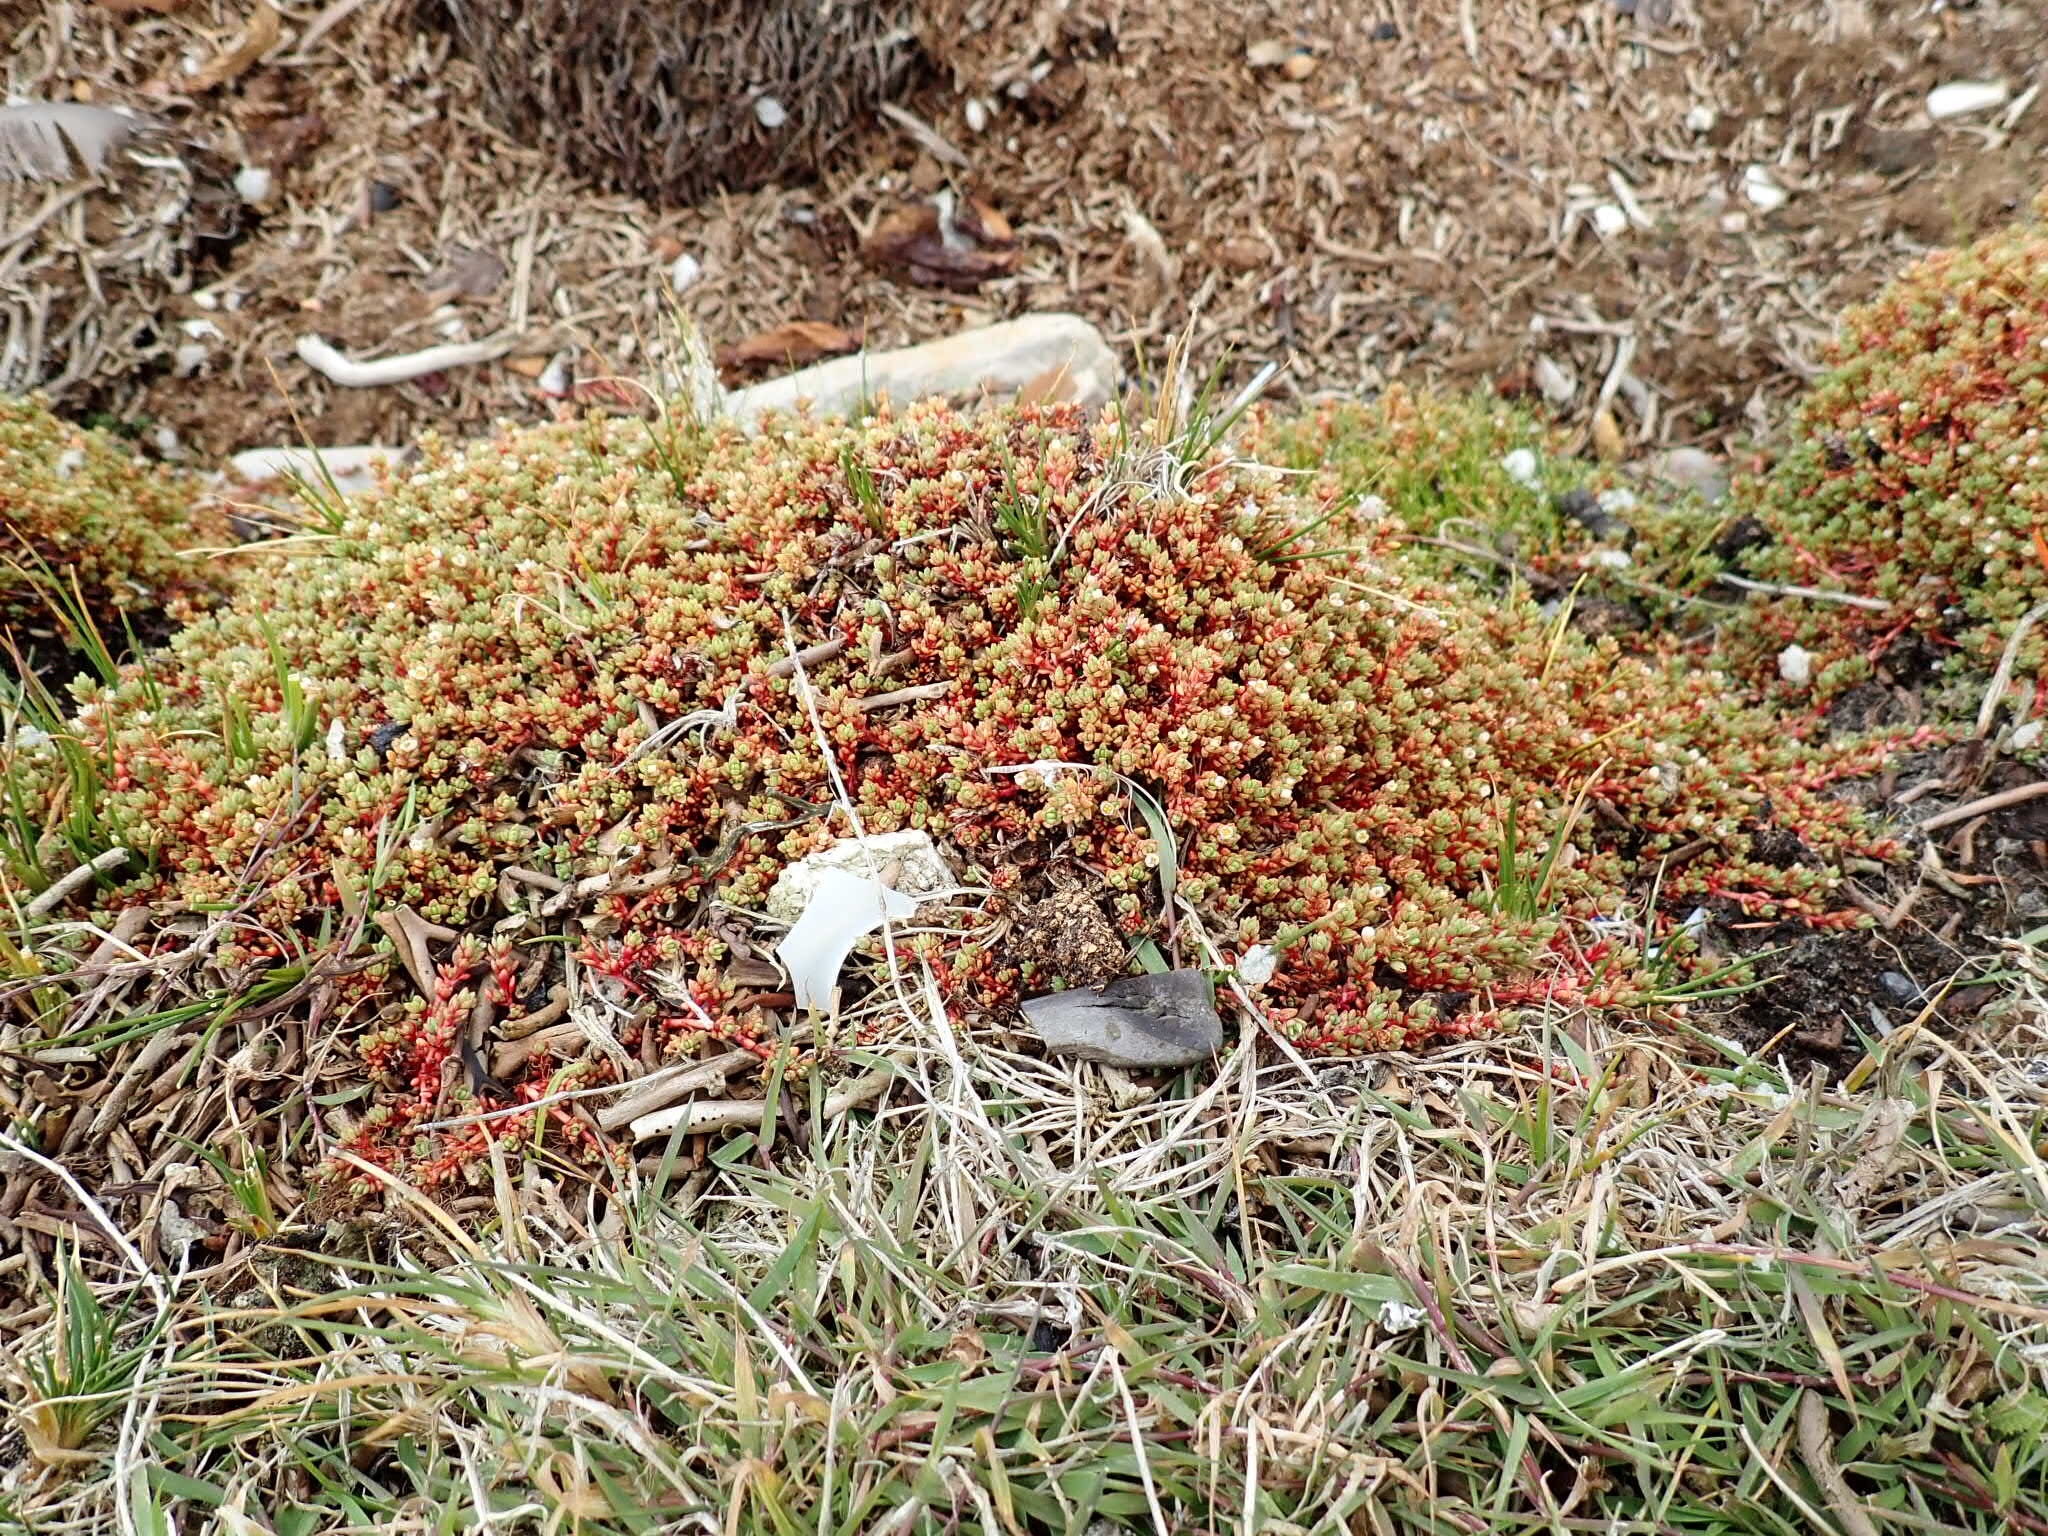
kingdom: Plantae
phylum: Tracheophyta
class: Magnoliopsida
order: Saxifragales
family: Crassulaceae
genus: Crassula
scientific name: Crassula moschata
